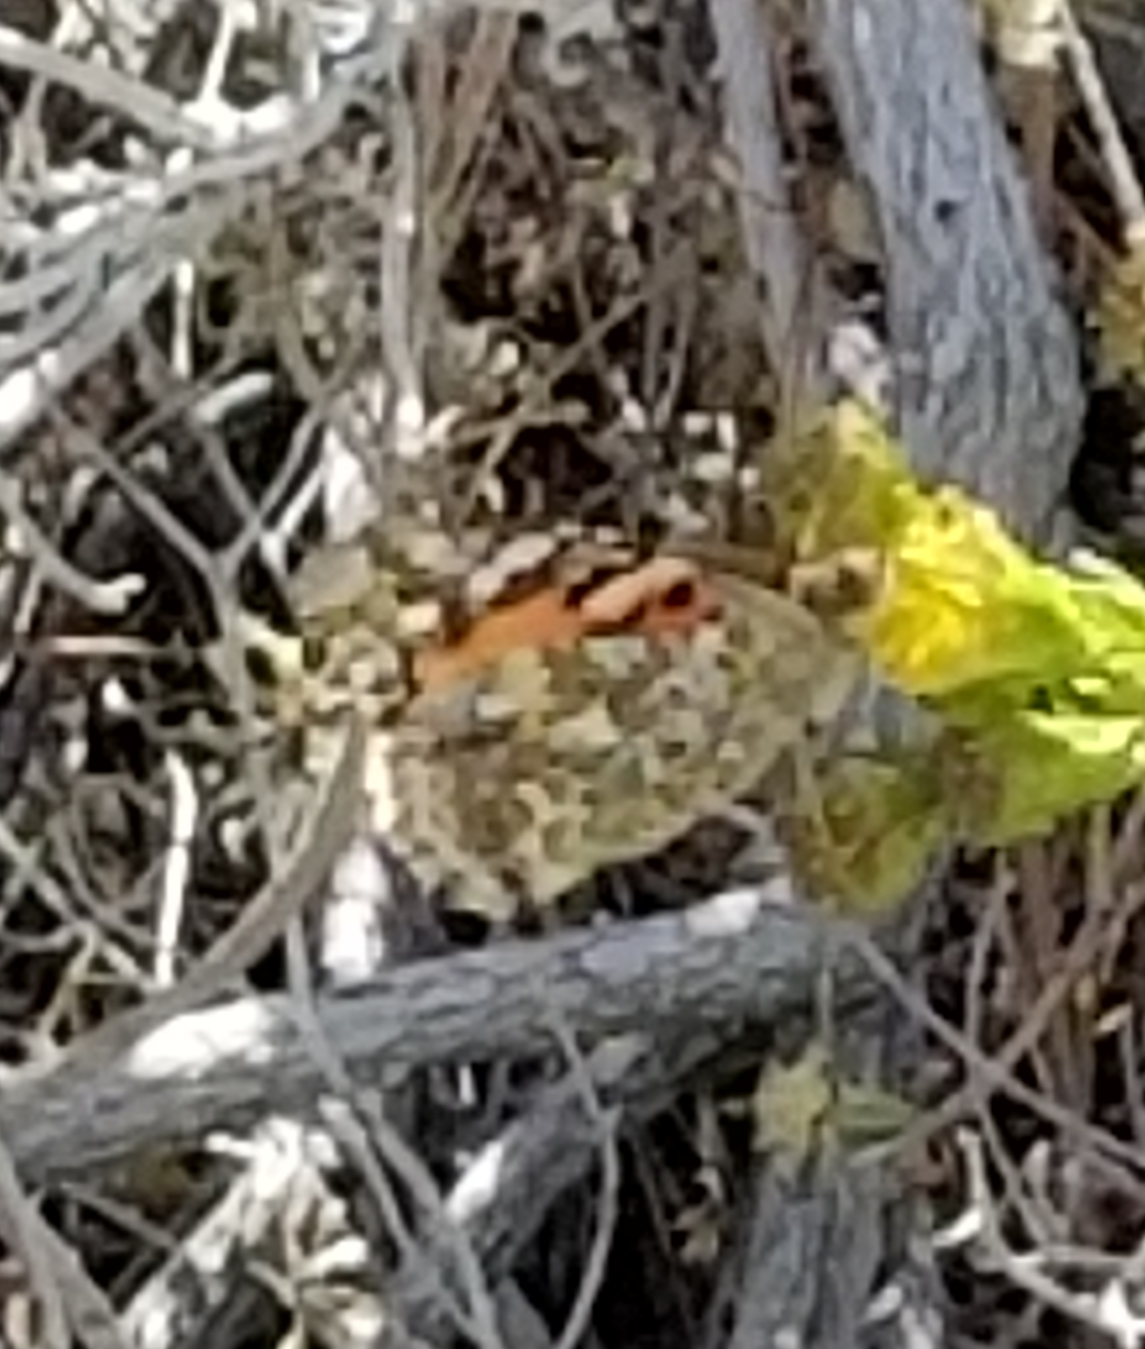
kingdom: Animalia
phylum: Arthropoda
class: Insecta
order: Lepidoptera
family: Nymphalidae
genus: Vanessa
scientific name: Vanessa cardui
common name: Painted lady
